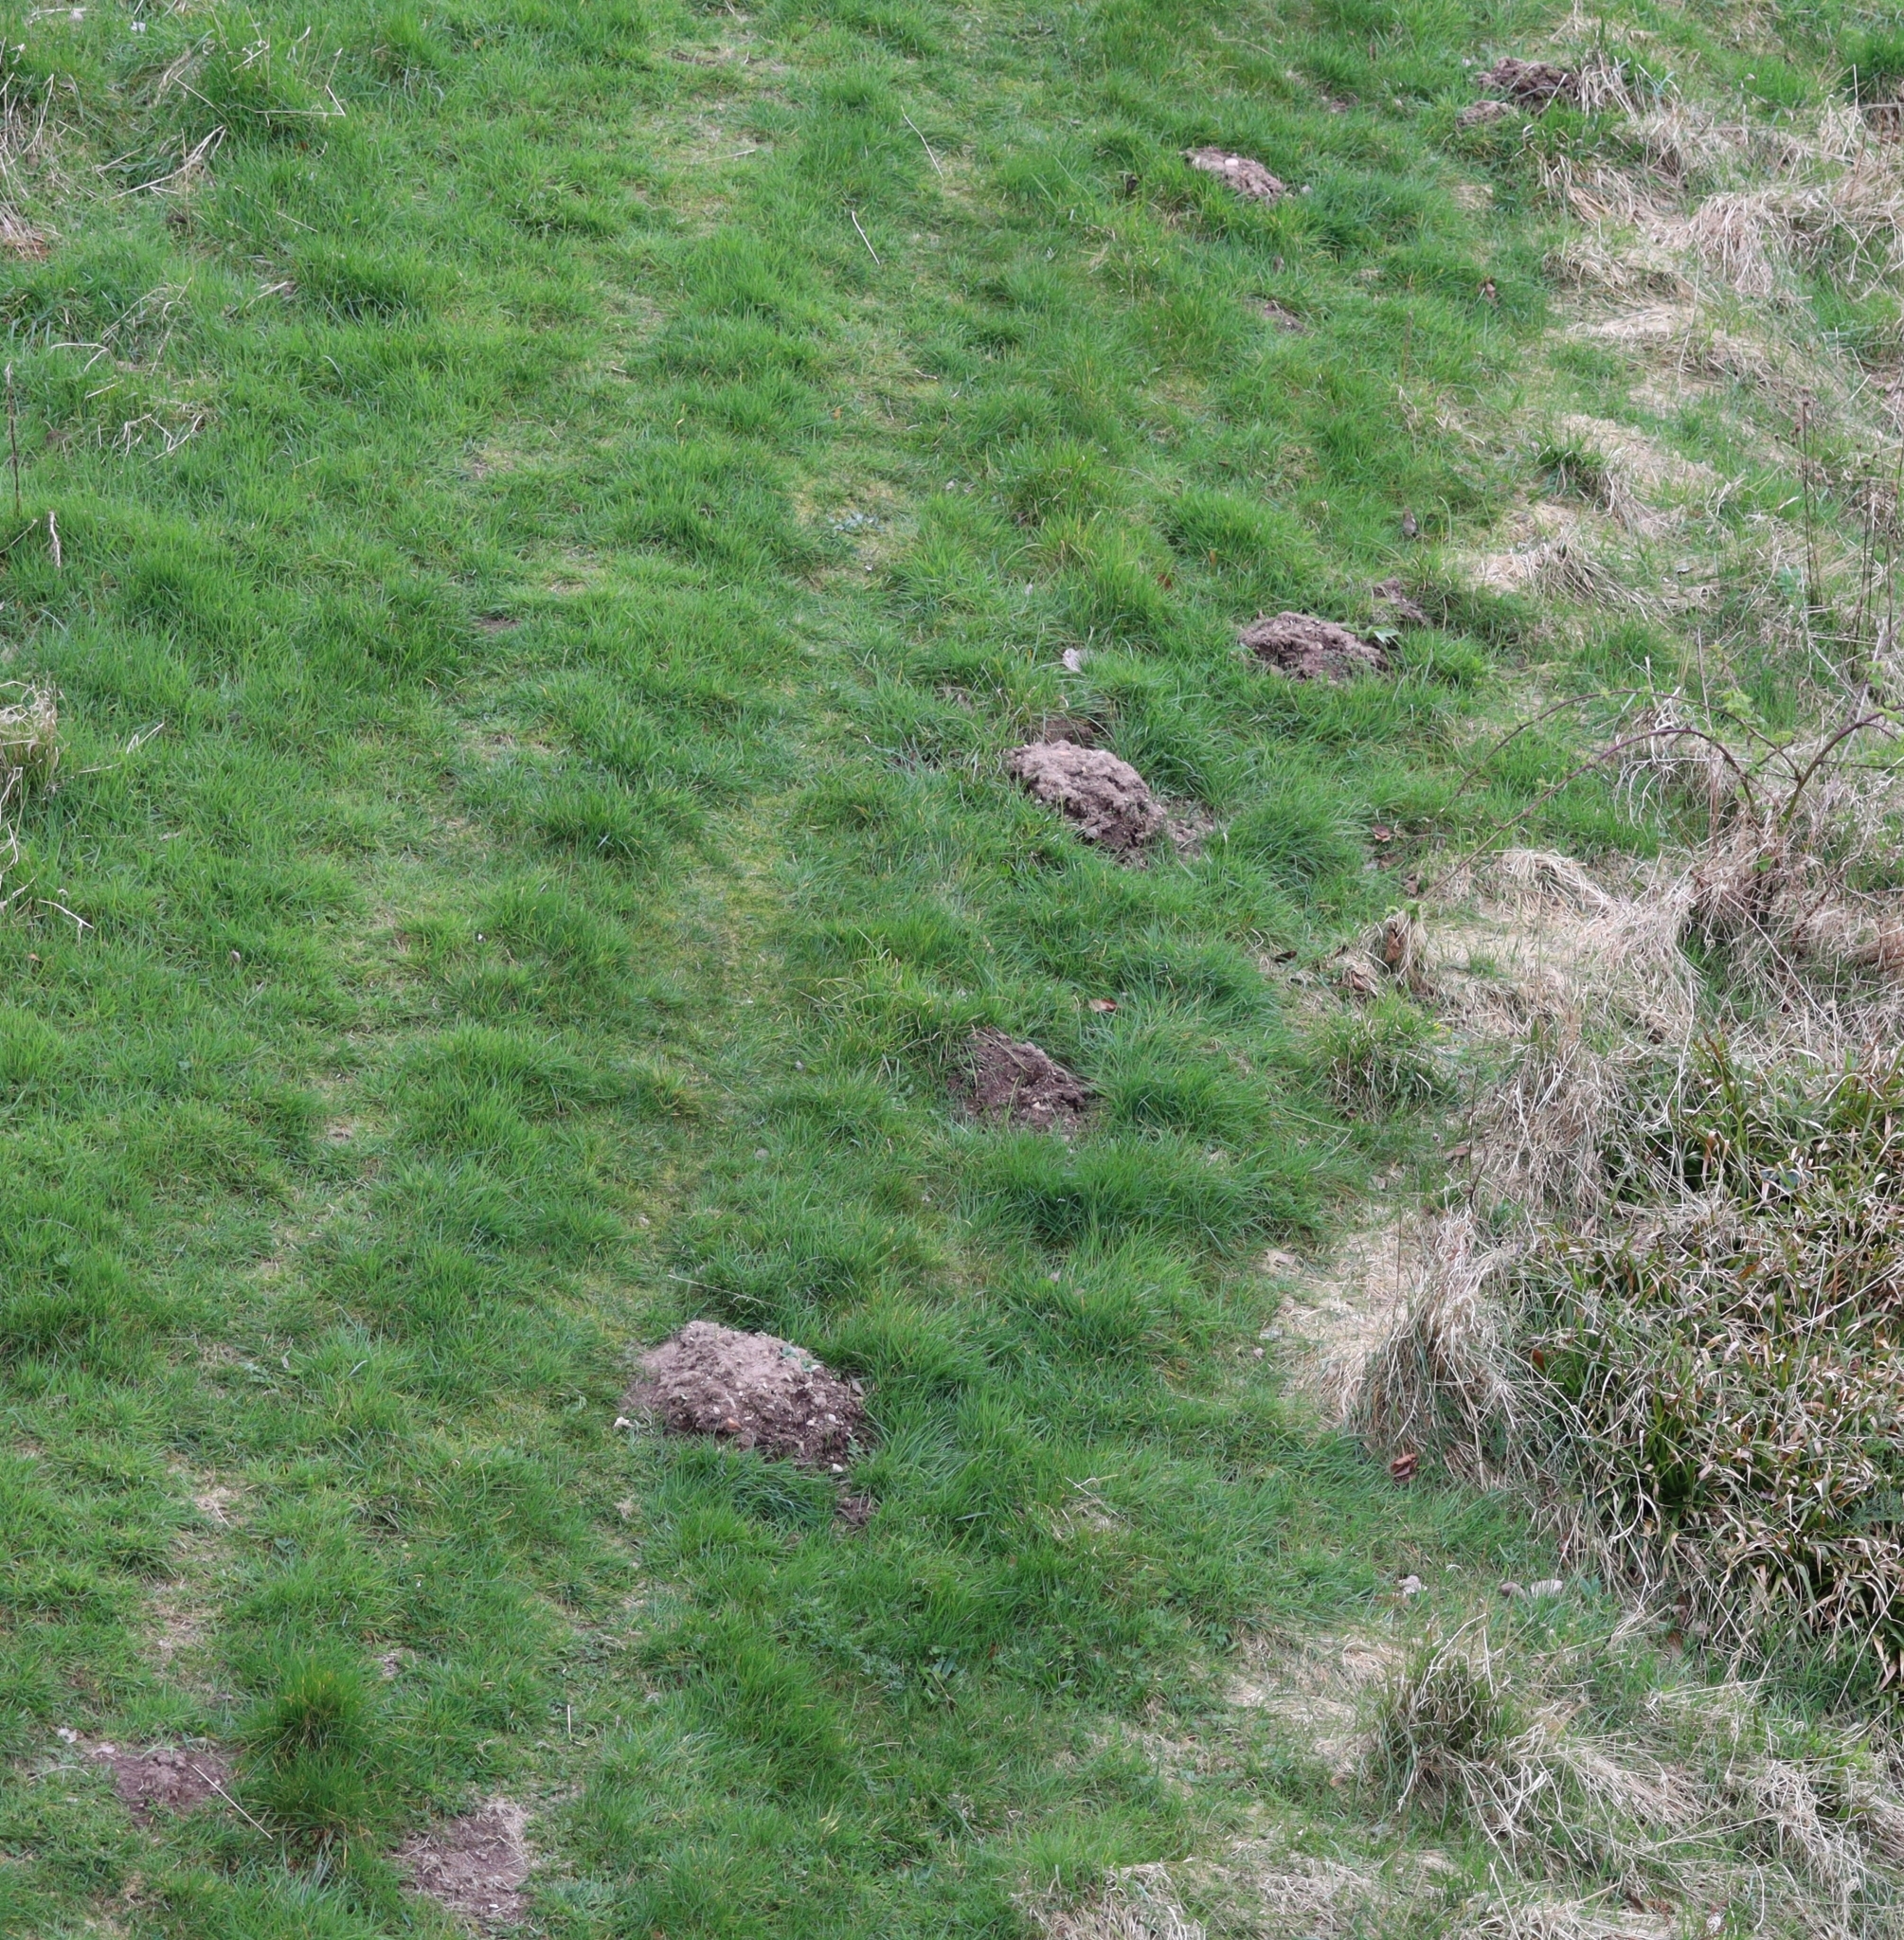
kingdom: Animalia
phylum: Chordata
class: Mammalia
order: Soricomorpha
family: Talpidae
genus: Talpa
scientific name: Talpa europaea
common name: European mole
